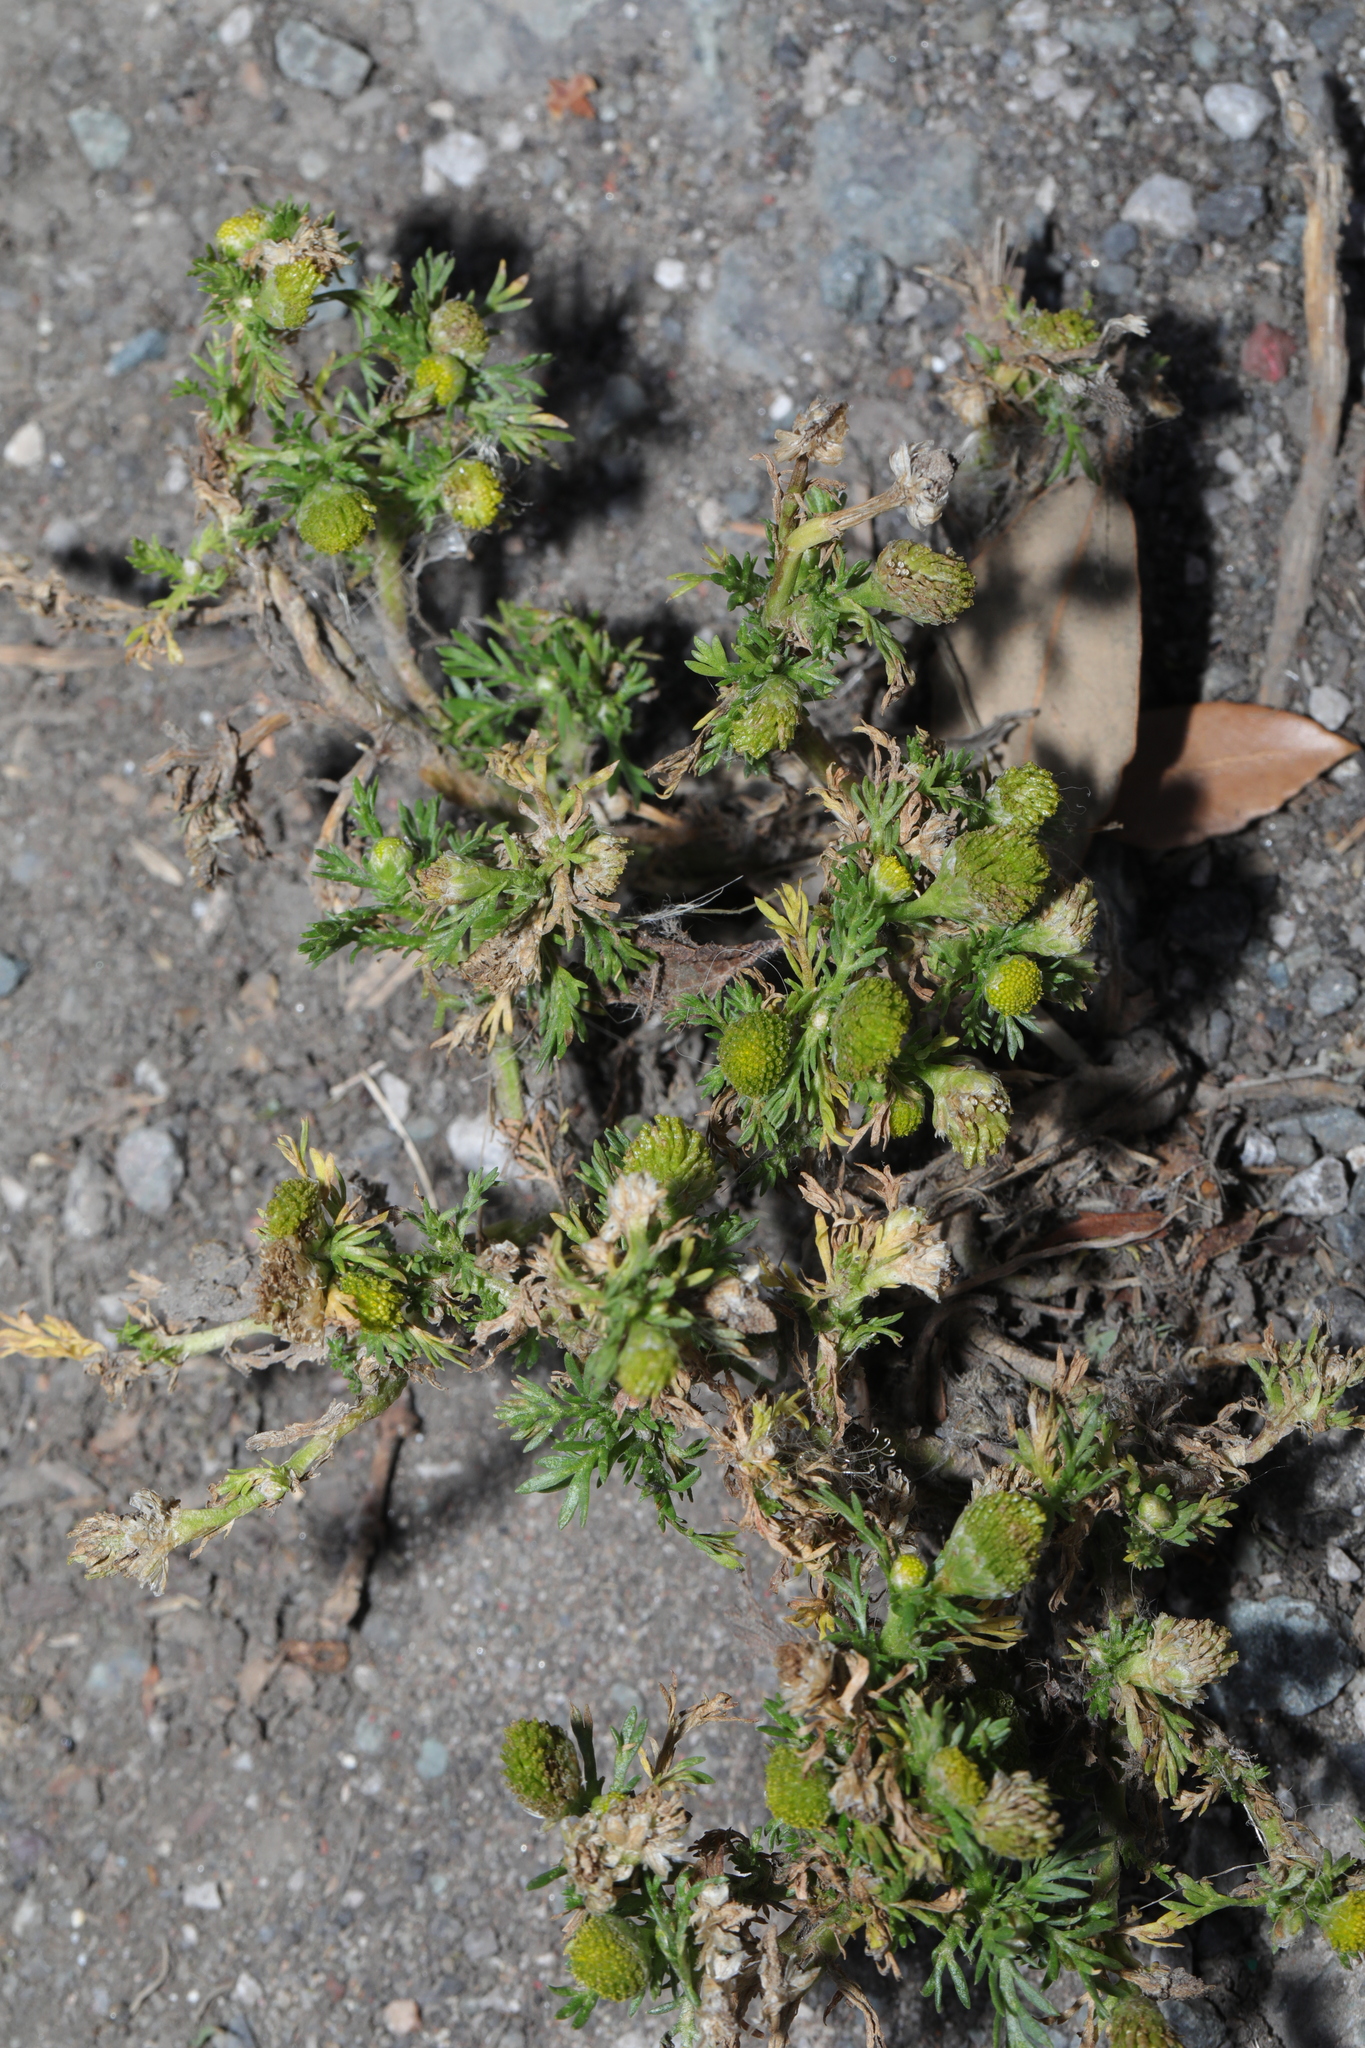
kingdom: Plantae
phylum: Tracheophyta
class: Magnoliopsida
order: Asterales
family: Asteraceae
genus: Matricaria
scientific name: Matricaria discoidea
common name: Disc mayweed
